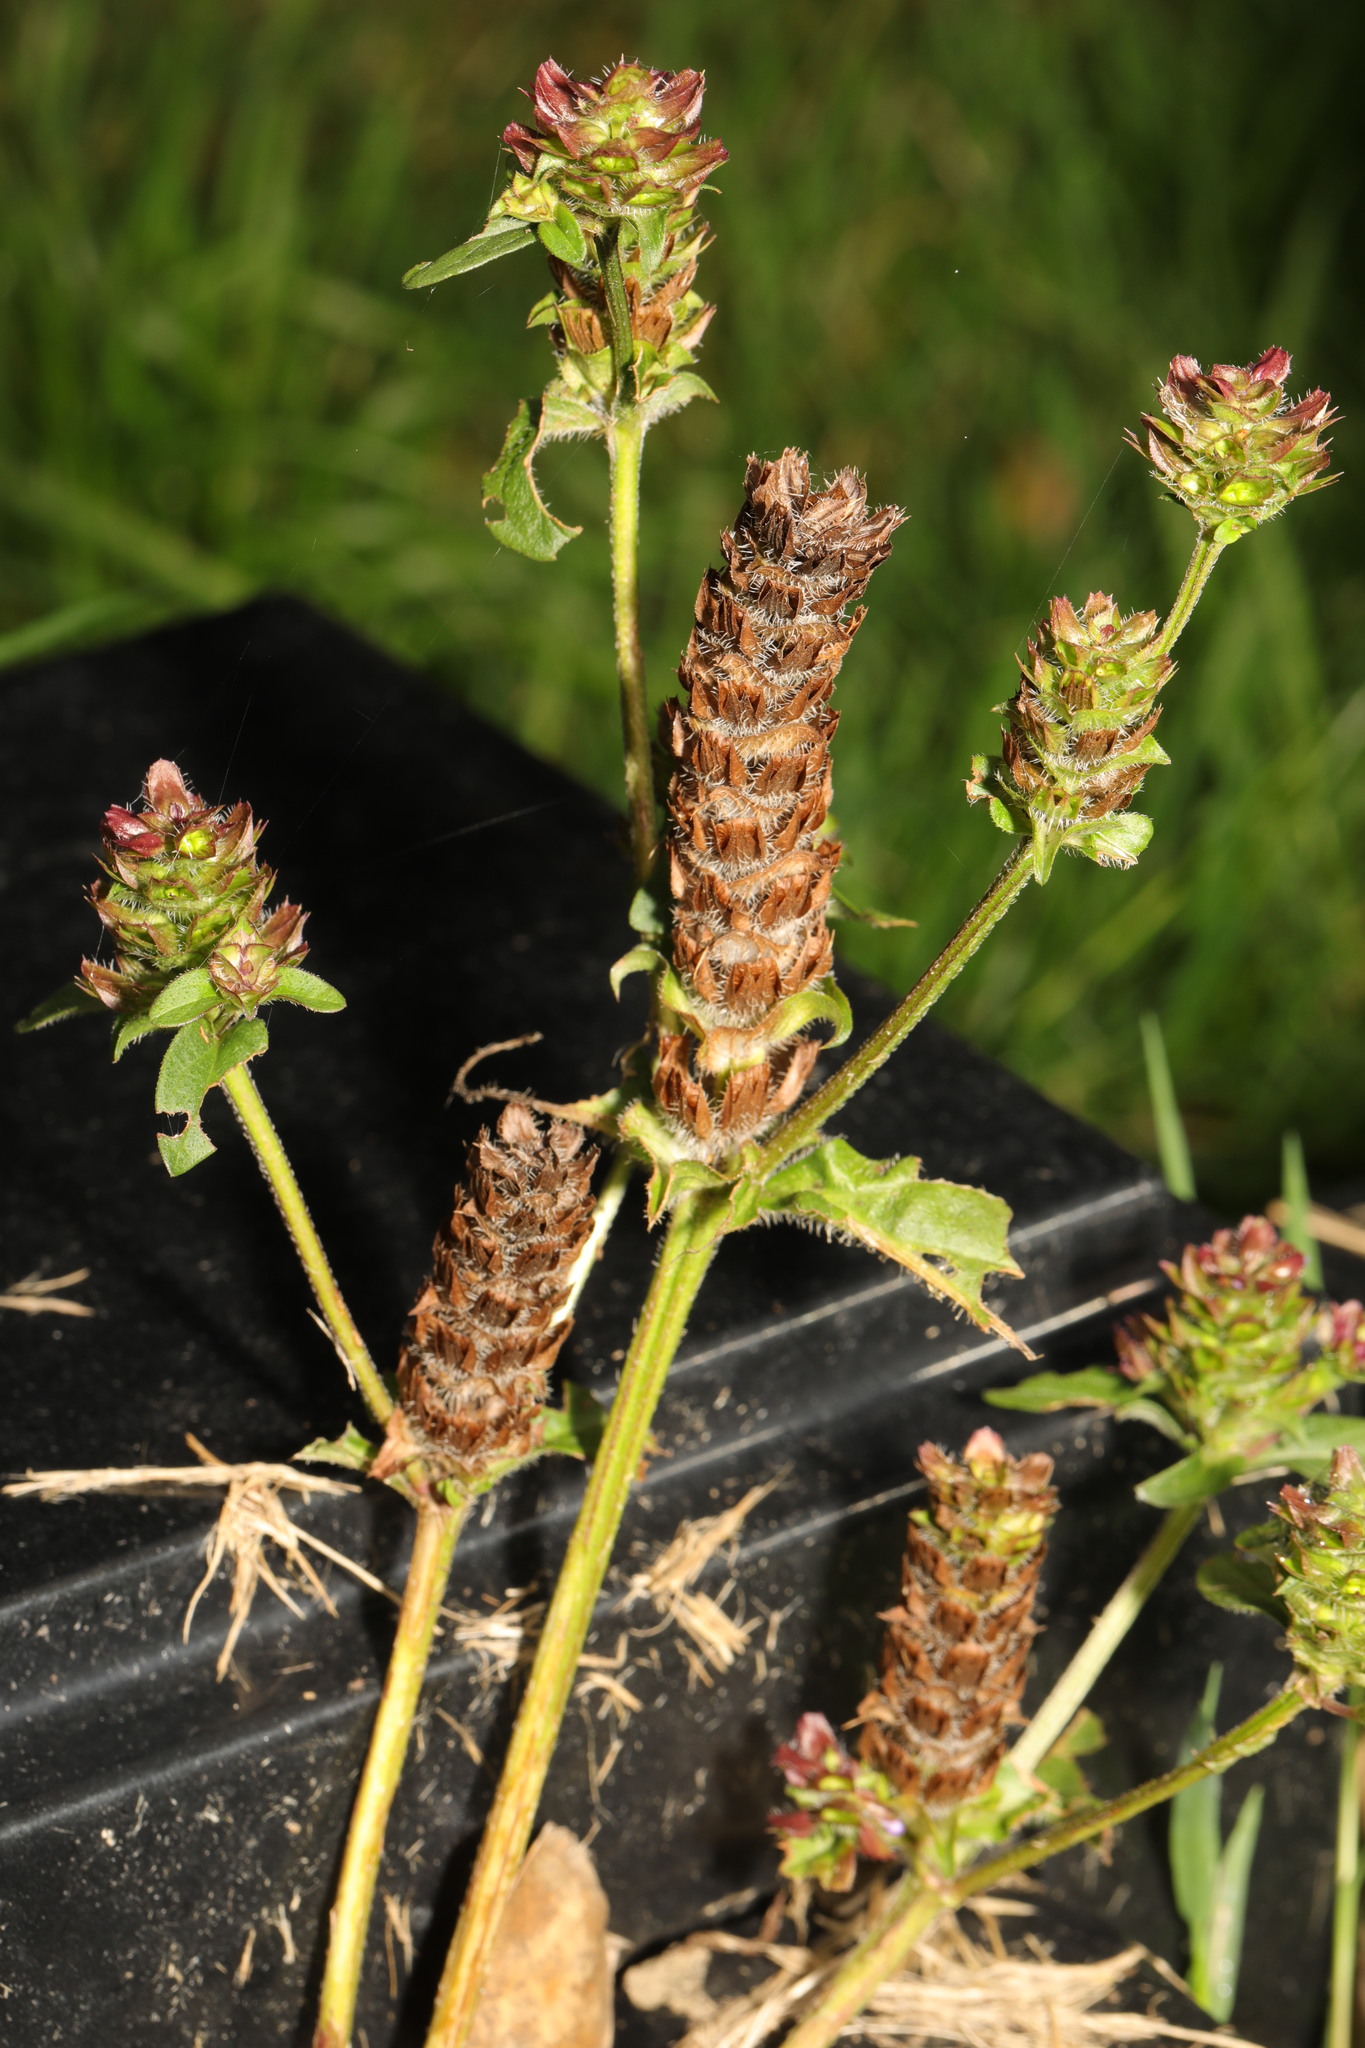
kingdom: Plantae
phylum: Tracheophyta
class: Magnoliopsida
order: Lamiales
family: Lamiaceae
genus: Prunella
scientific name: Prunella vulgaris
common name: Heal-all
